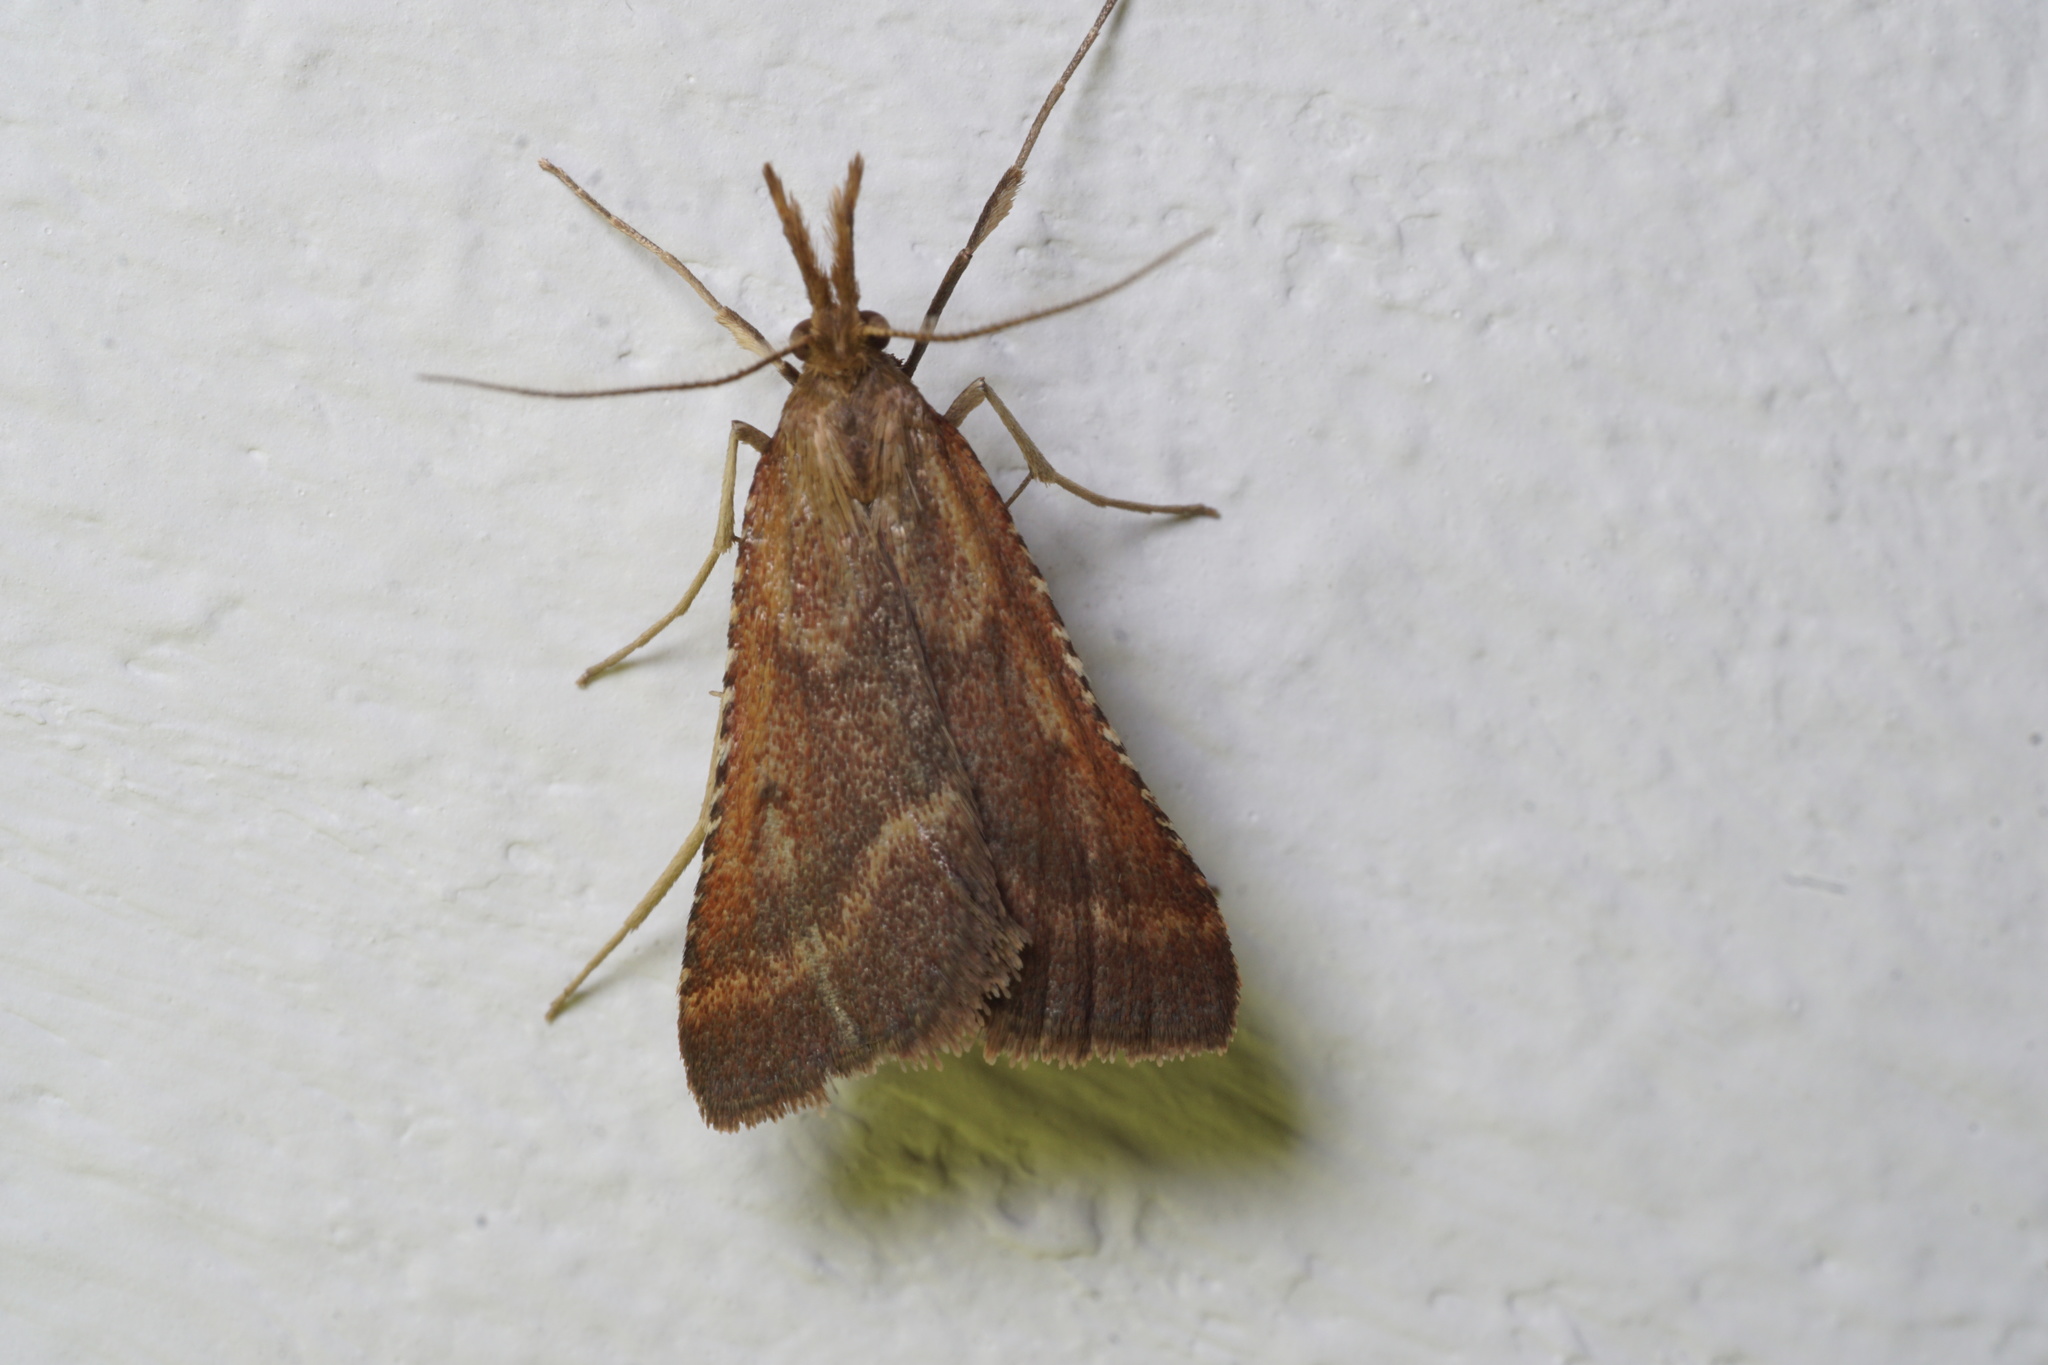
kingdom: Animalia
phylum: Arthropoda
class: Insecta
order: Lepidoptera
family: Pyralidae
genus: Synaphe
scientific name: Synaphe punctalis
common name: Long-legged tabby
